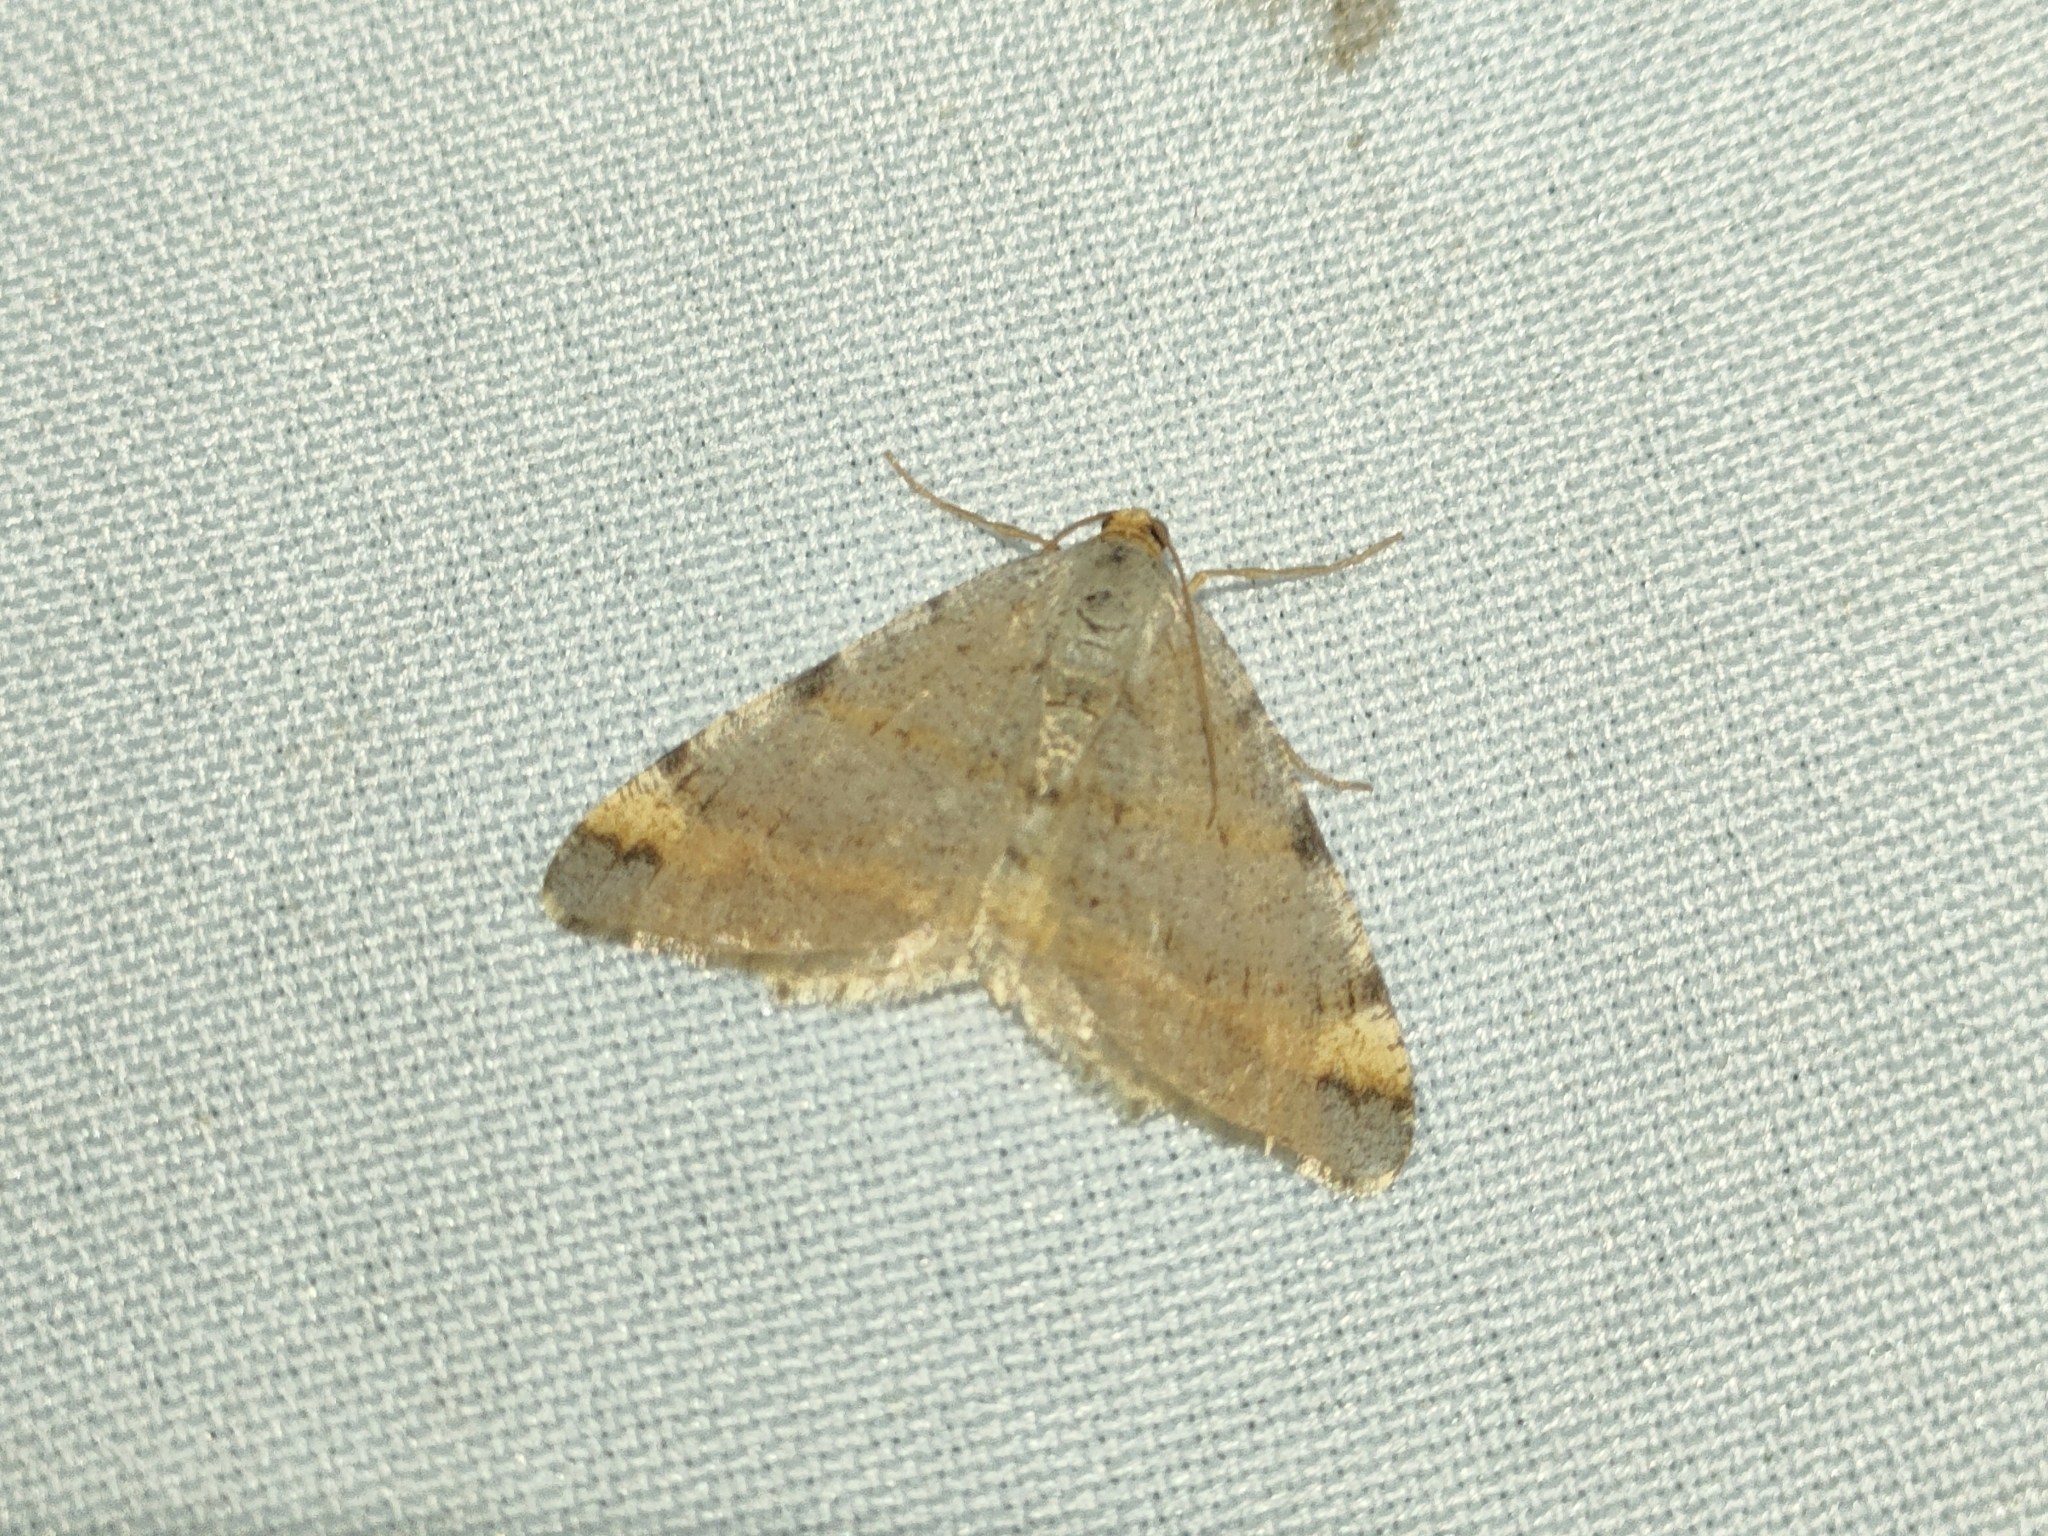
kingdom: Animalia
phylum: Arthropoda
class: Insecta
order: Lepidoptera
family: Geometridae
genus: Macaria
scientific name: Macaria liturata
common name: Tawny-barred angle
